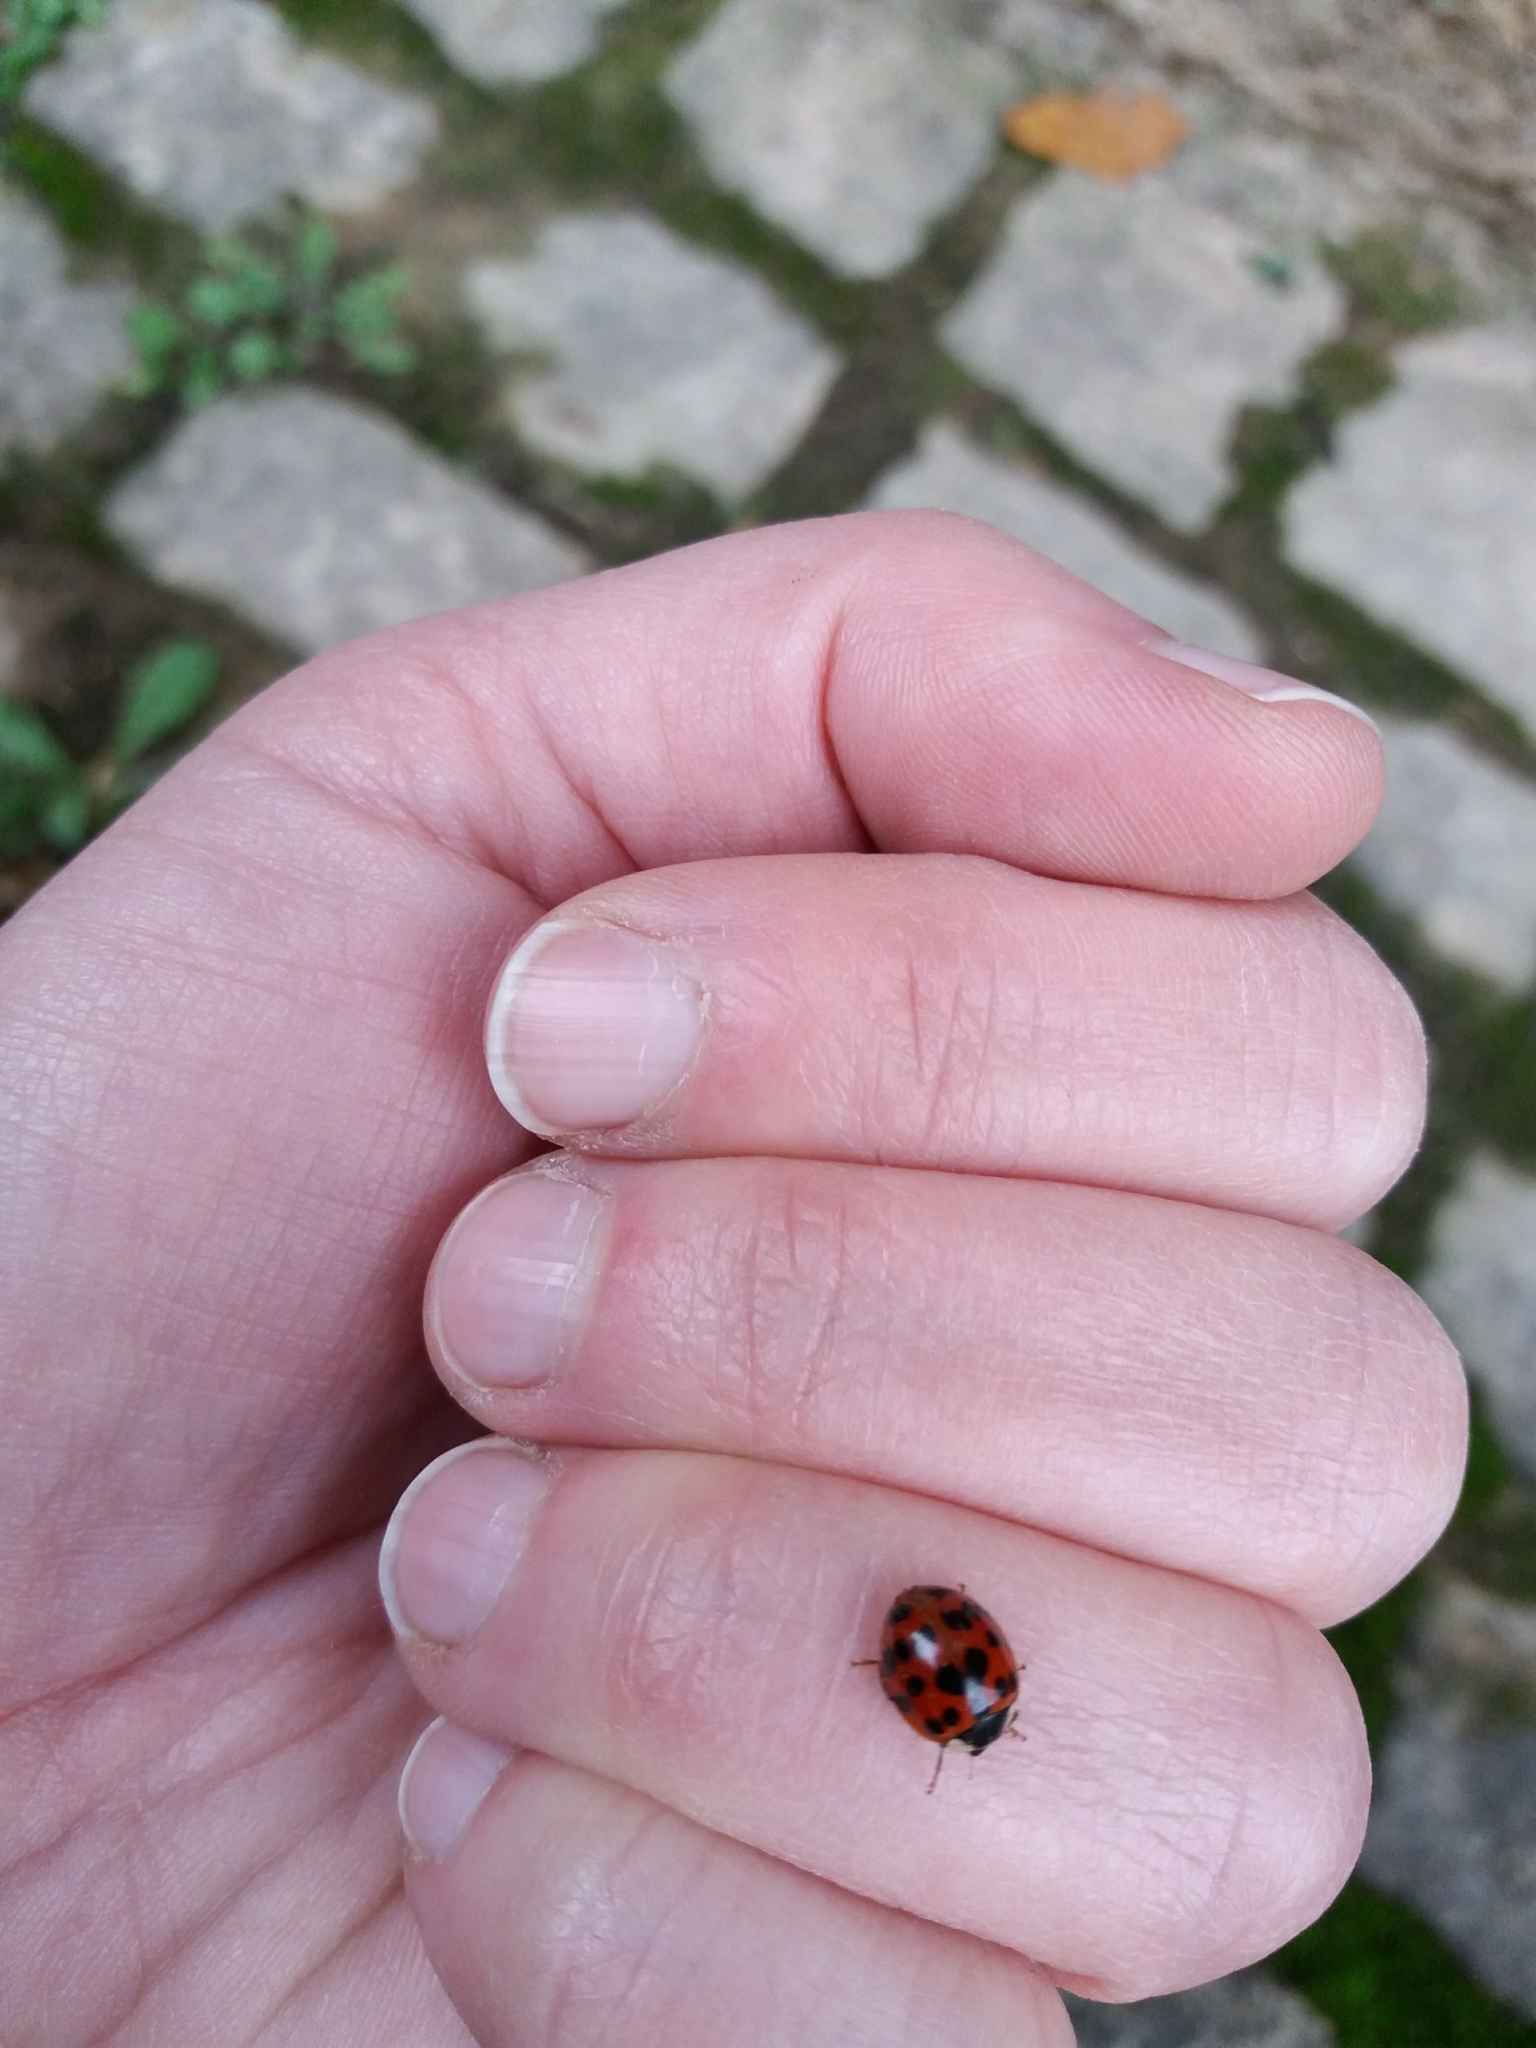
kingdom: Animalia
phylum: Arthropoda
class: Insecta
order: Coleoptera
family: Coccinellidae
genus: Harmonia
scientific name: Harmonia axyridis
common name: Harlequin ladybird
